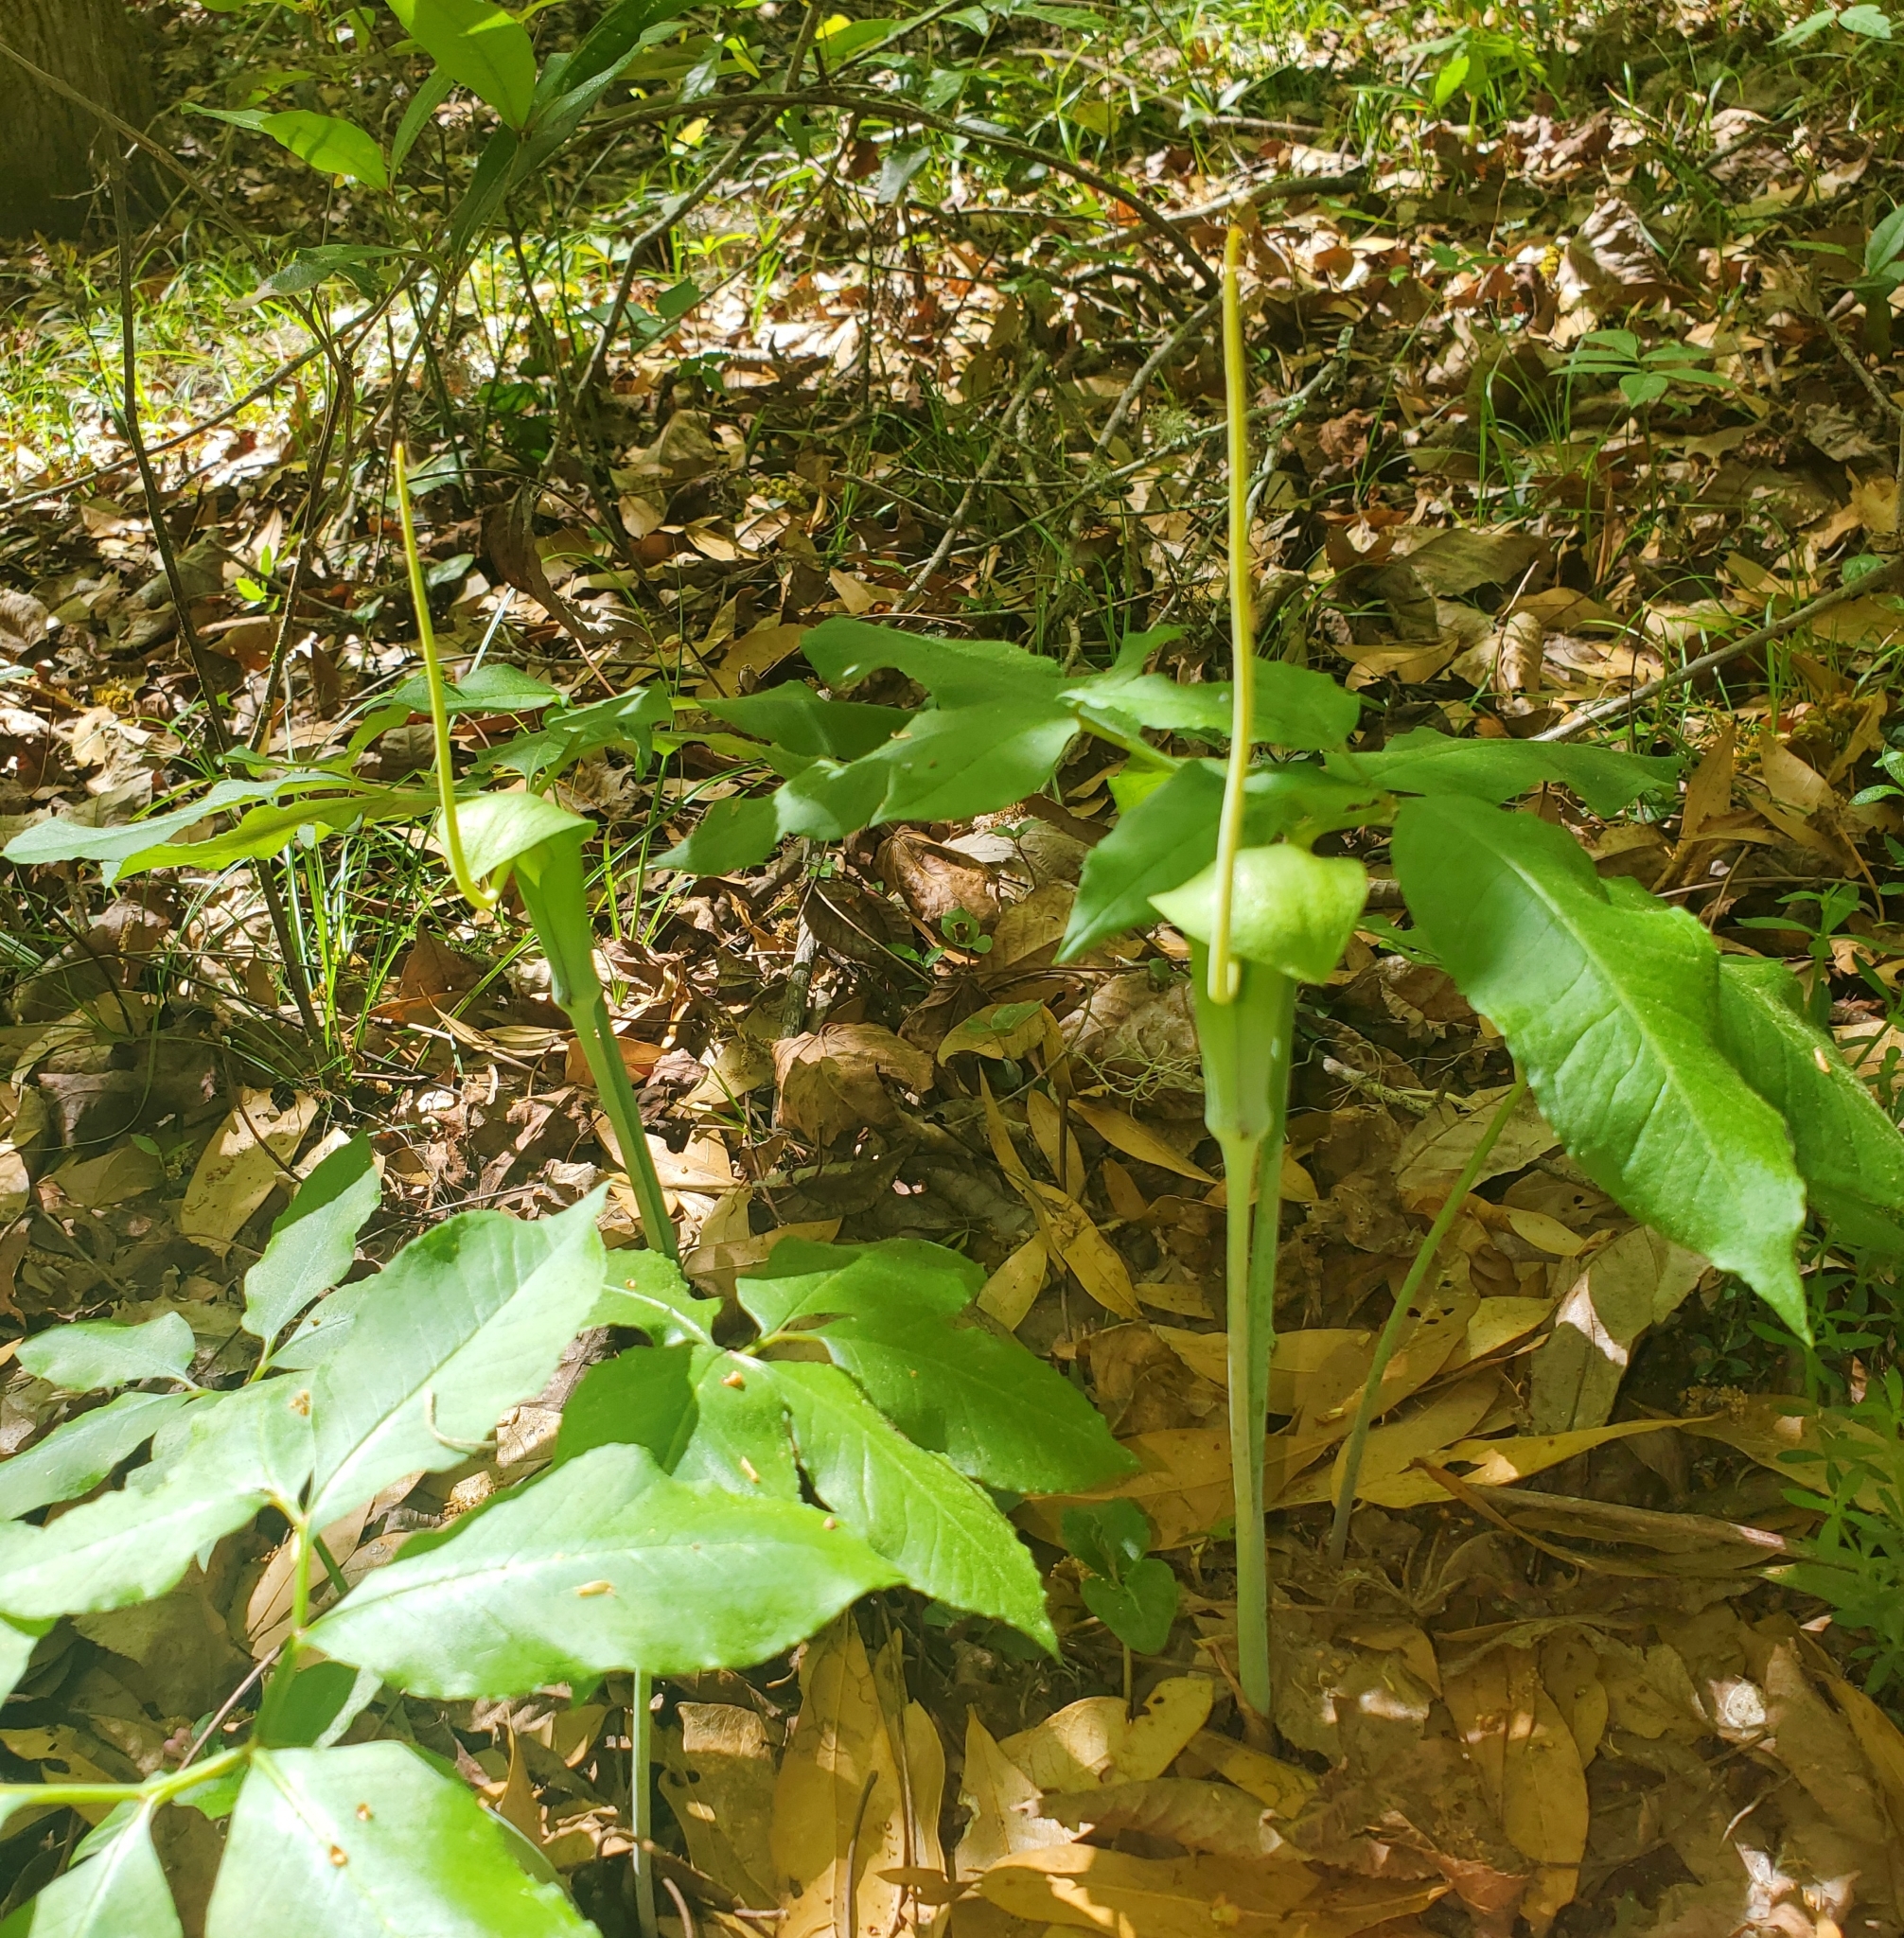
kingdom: Plantae
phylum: Tracheophyta
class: Liliopsida
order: Alismatales
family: Araceae
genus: Arisaema
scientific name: Arisaema dracontium
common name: Dragon-arum
